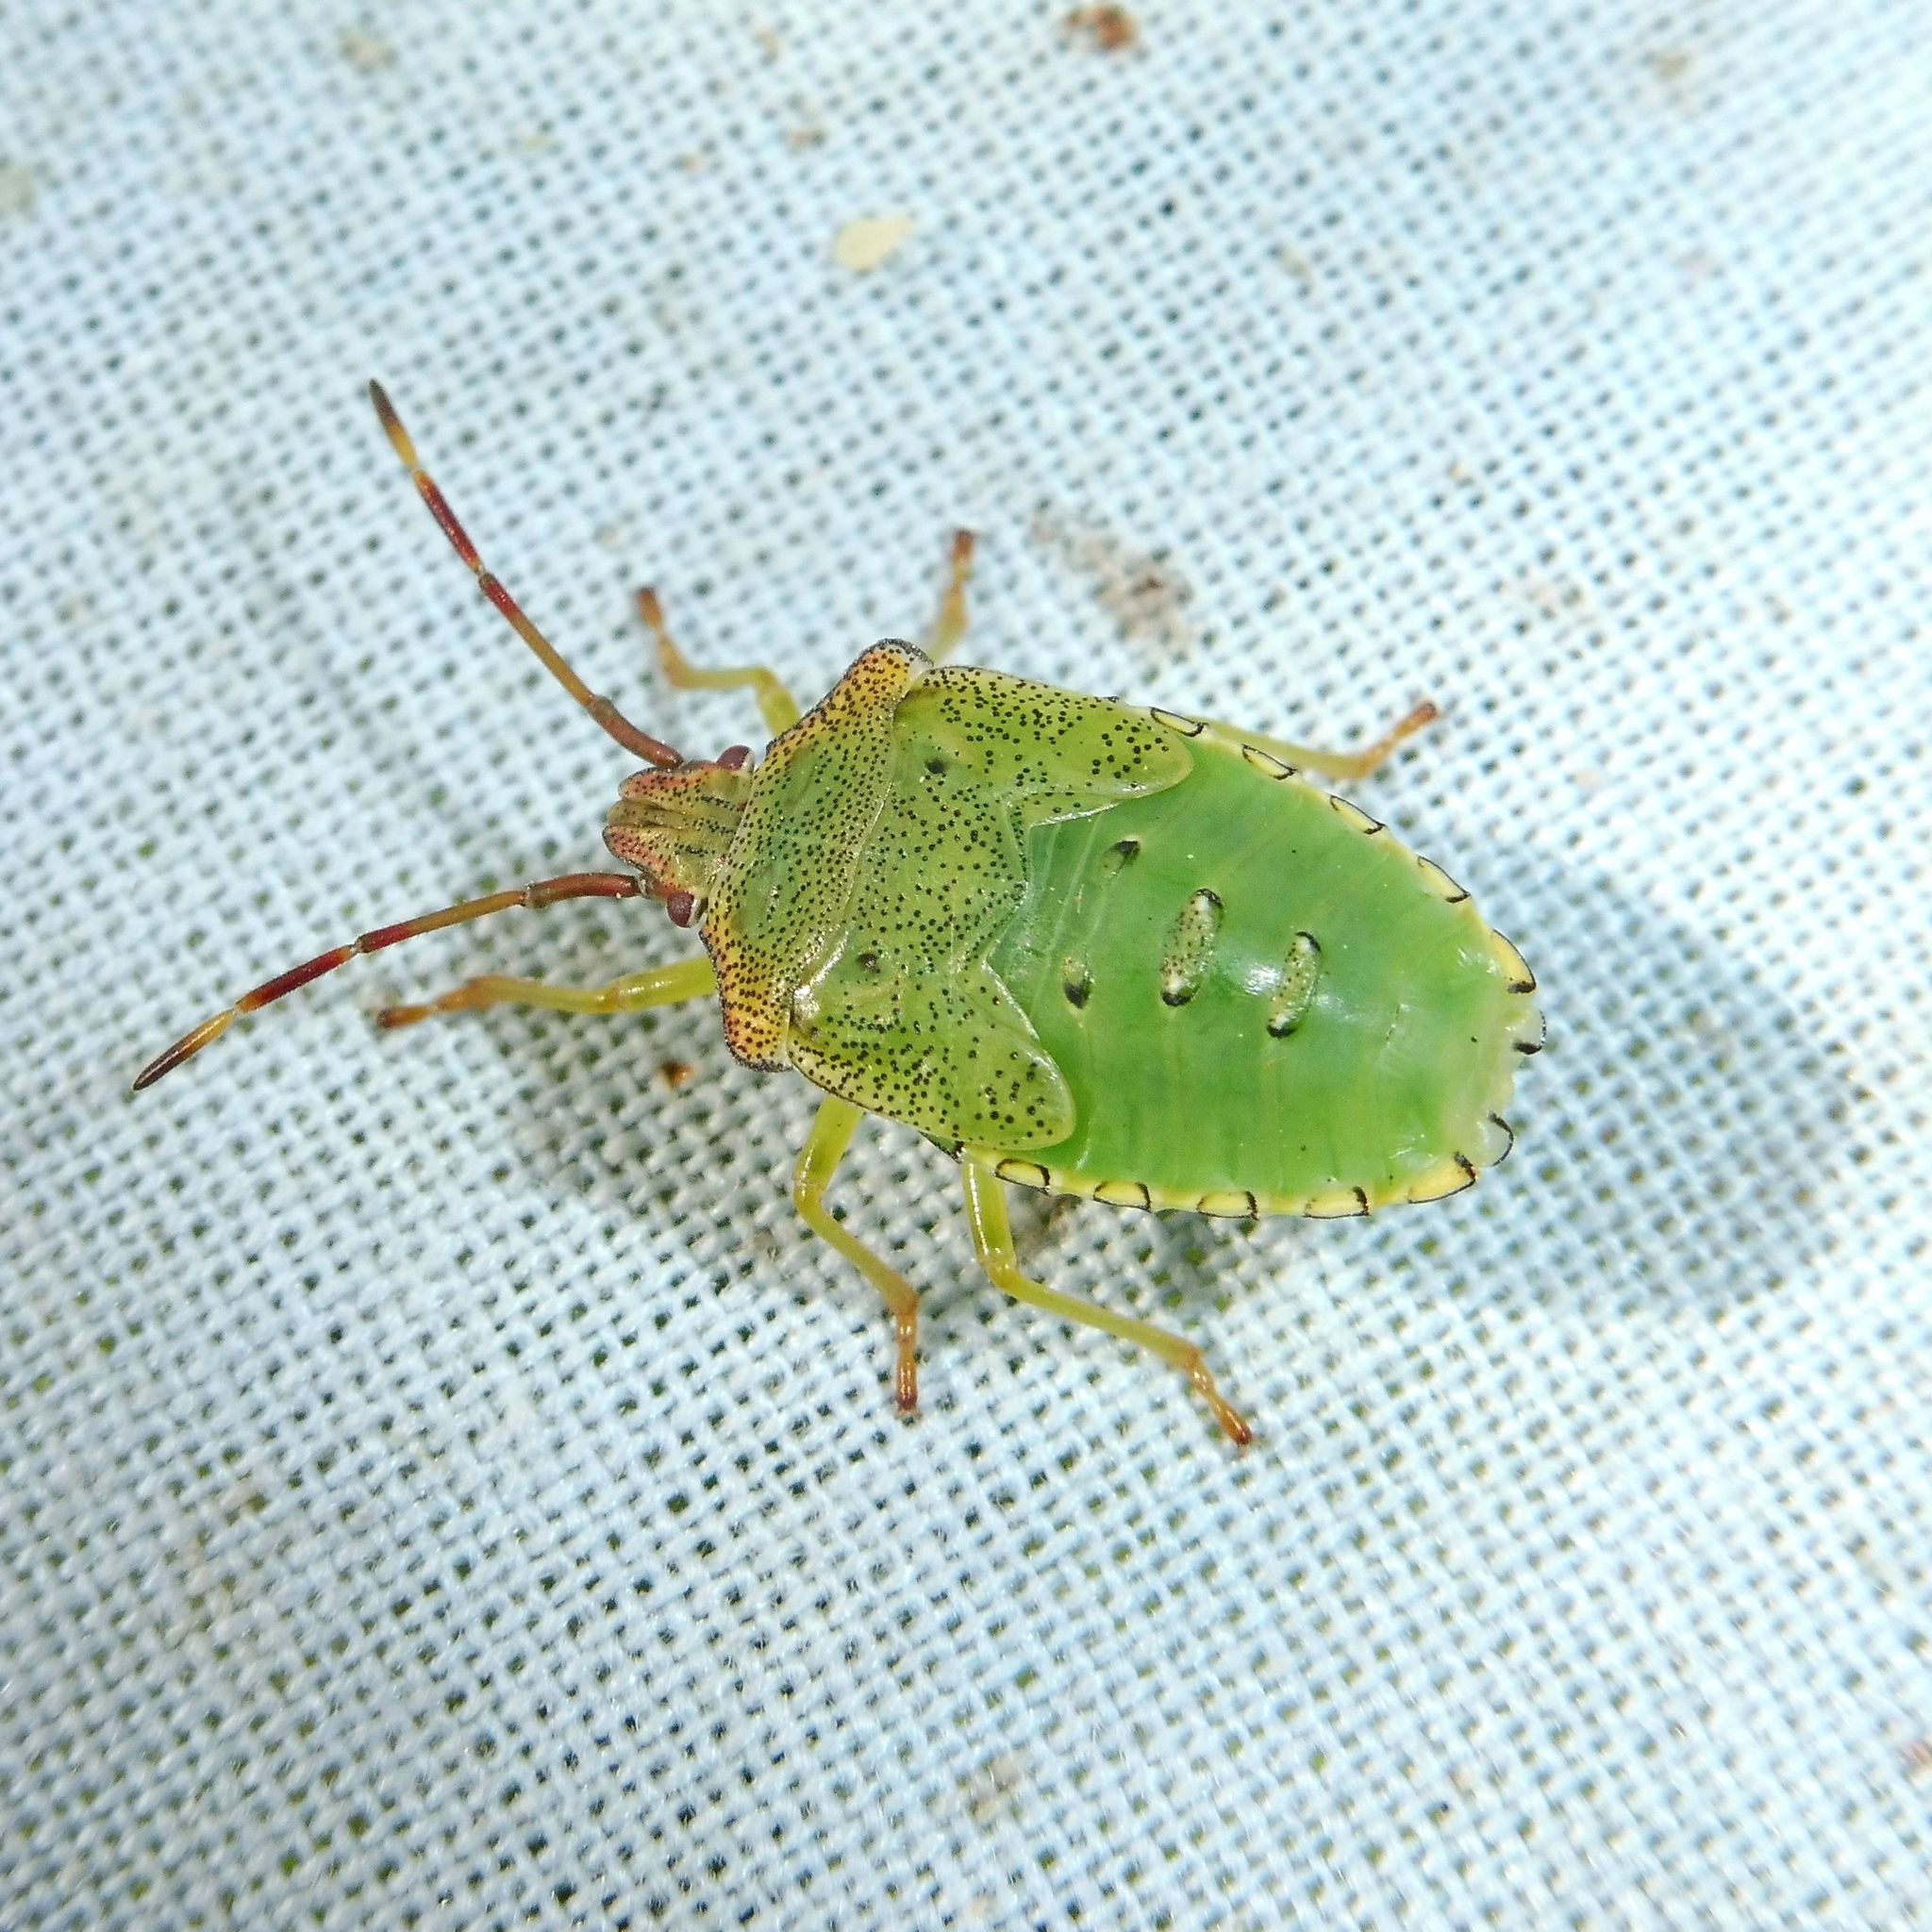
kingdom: Animalia
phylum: Arthropoda
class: Insecta
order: Hemiptera
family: Acanthosomatidae
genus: Acanthosoma
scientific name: Acanthosoma haemorrhoidale
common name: Hawthorn shieldbug
